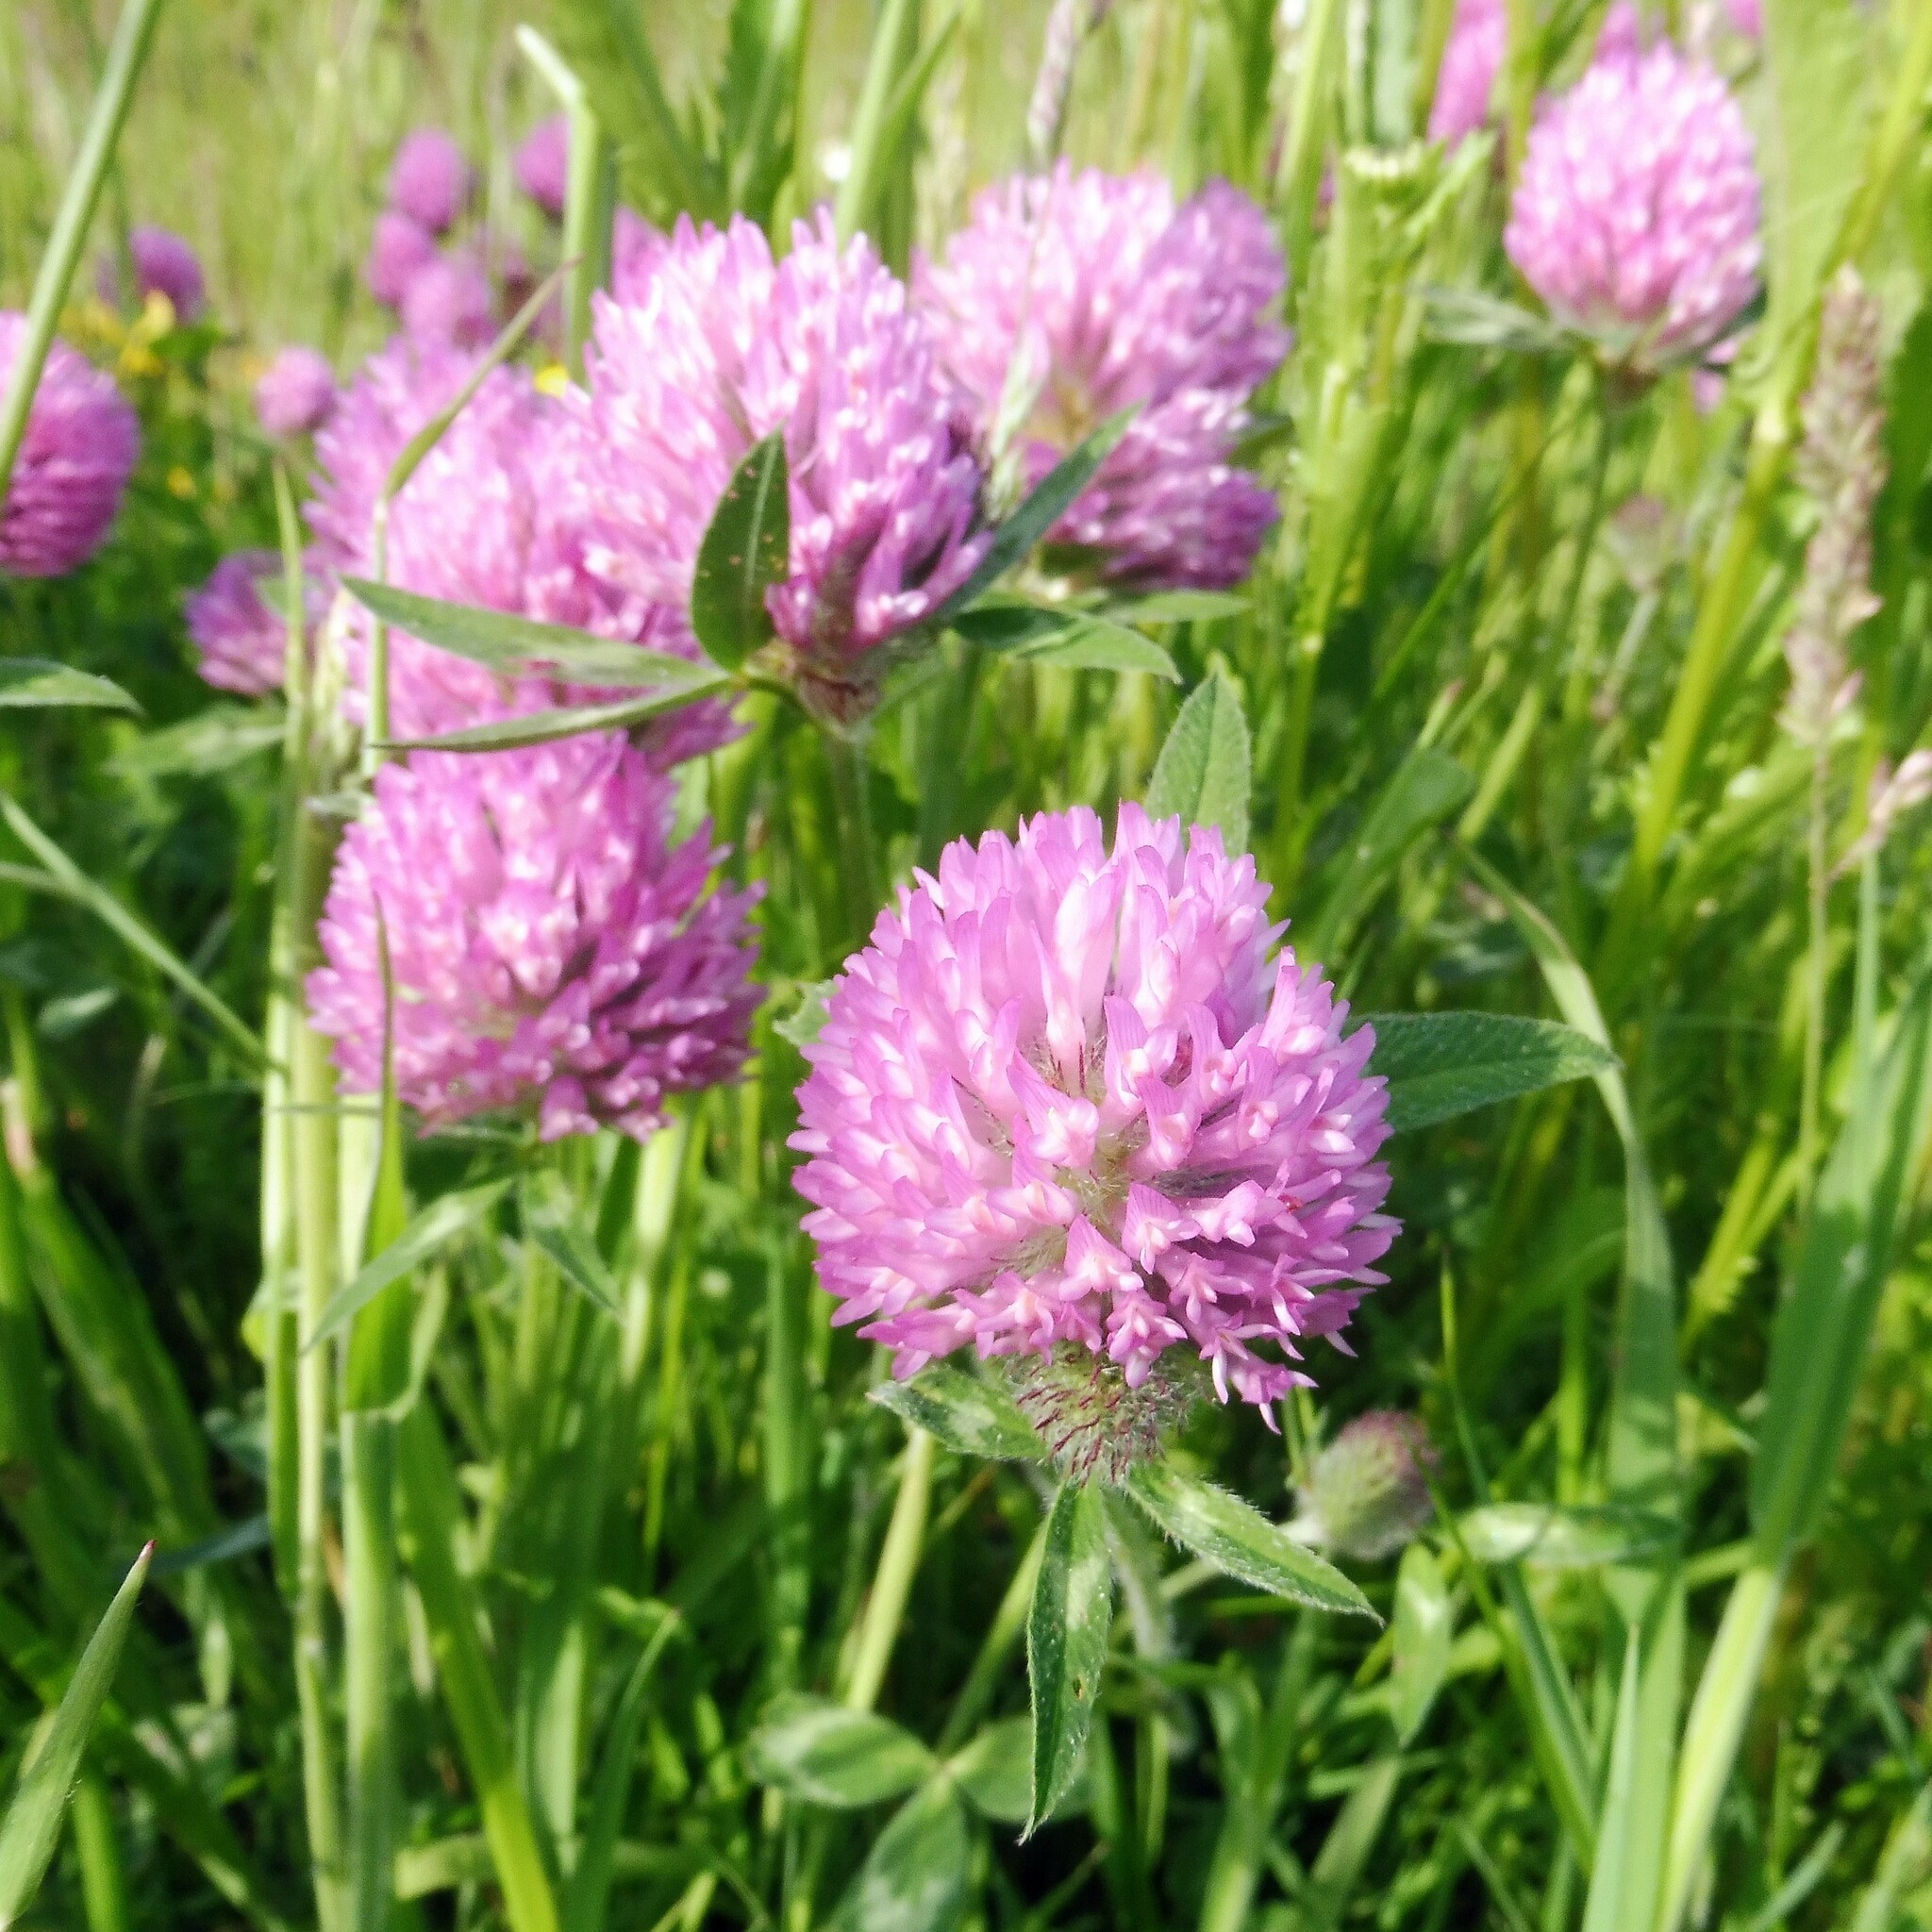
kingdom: Plantae
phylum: Tracheophyta
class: Magnoliopsida
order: Fabales
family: Fabaceae
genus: Trifolium
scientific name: Trifolium pratense
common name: Red clover
